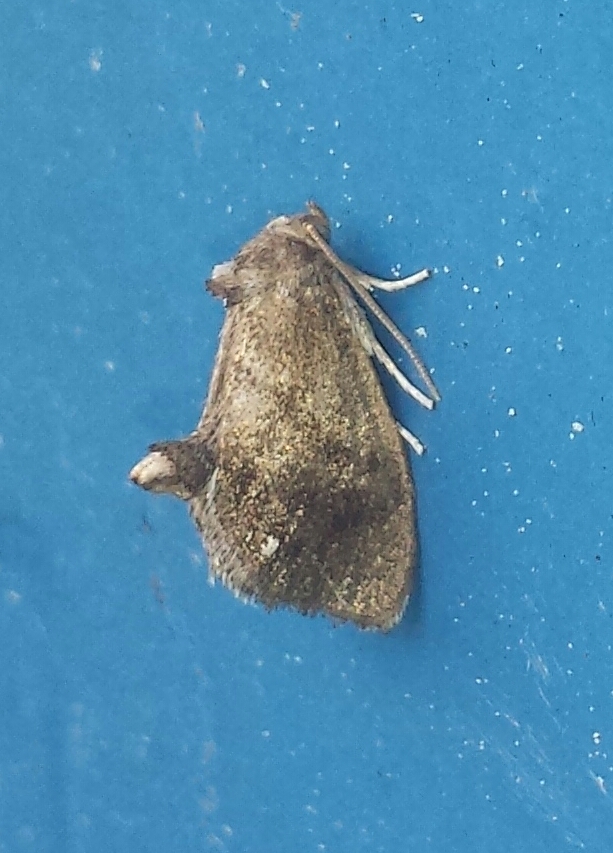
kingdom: Animalia
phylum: Arthropoda
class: Insecta
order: Lepidoptera
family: Limacodidae
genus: Packardia
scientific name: Packardia geminata
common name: Jeweled tailed slug moth
